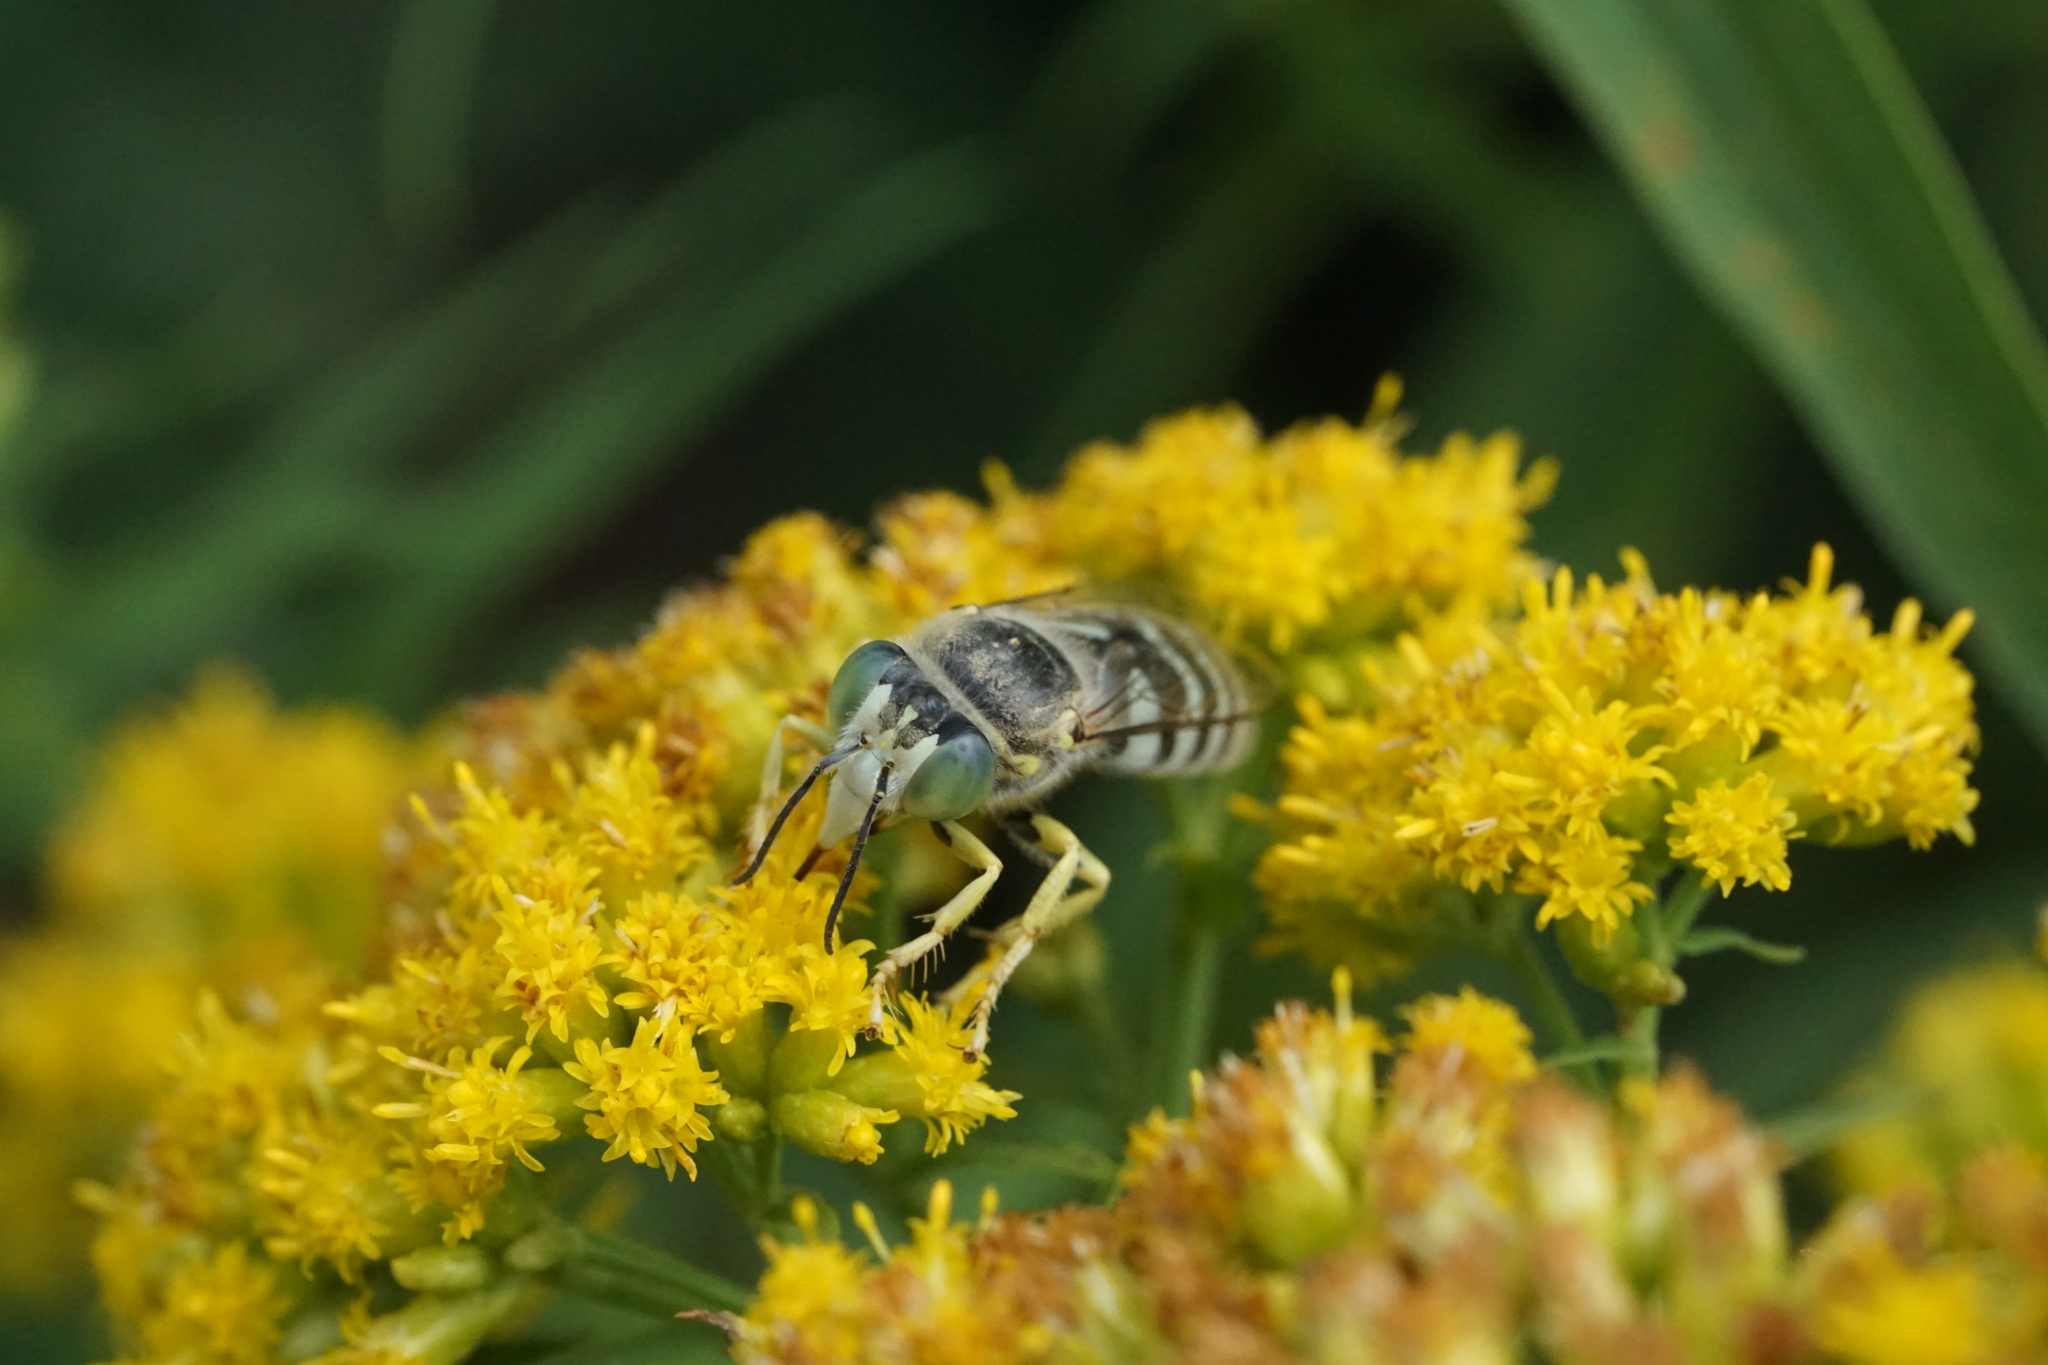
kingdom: Animalia
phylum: Arthropoda
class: Insecta
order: Hymenoptera
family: Crabronidae
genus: Bembix
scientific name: Bembix americana
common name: American sand wasp
